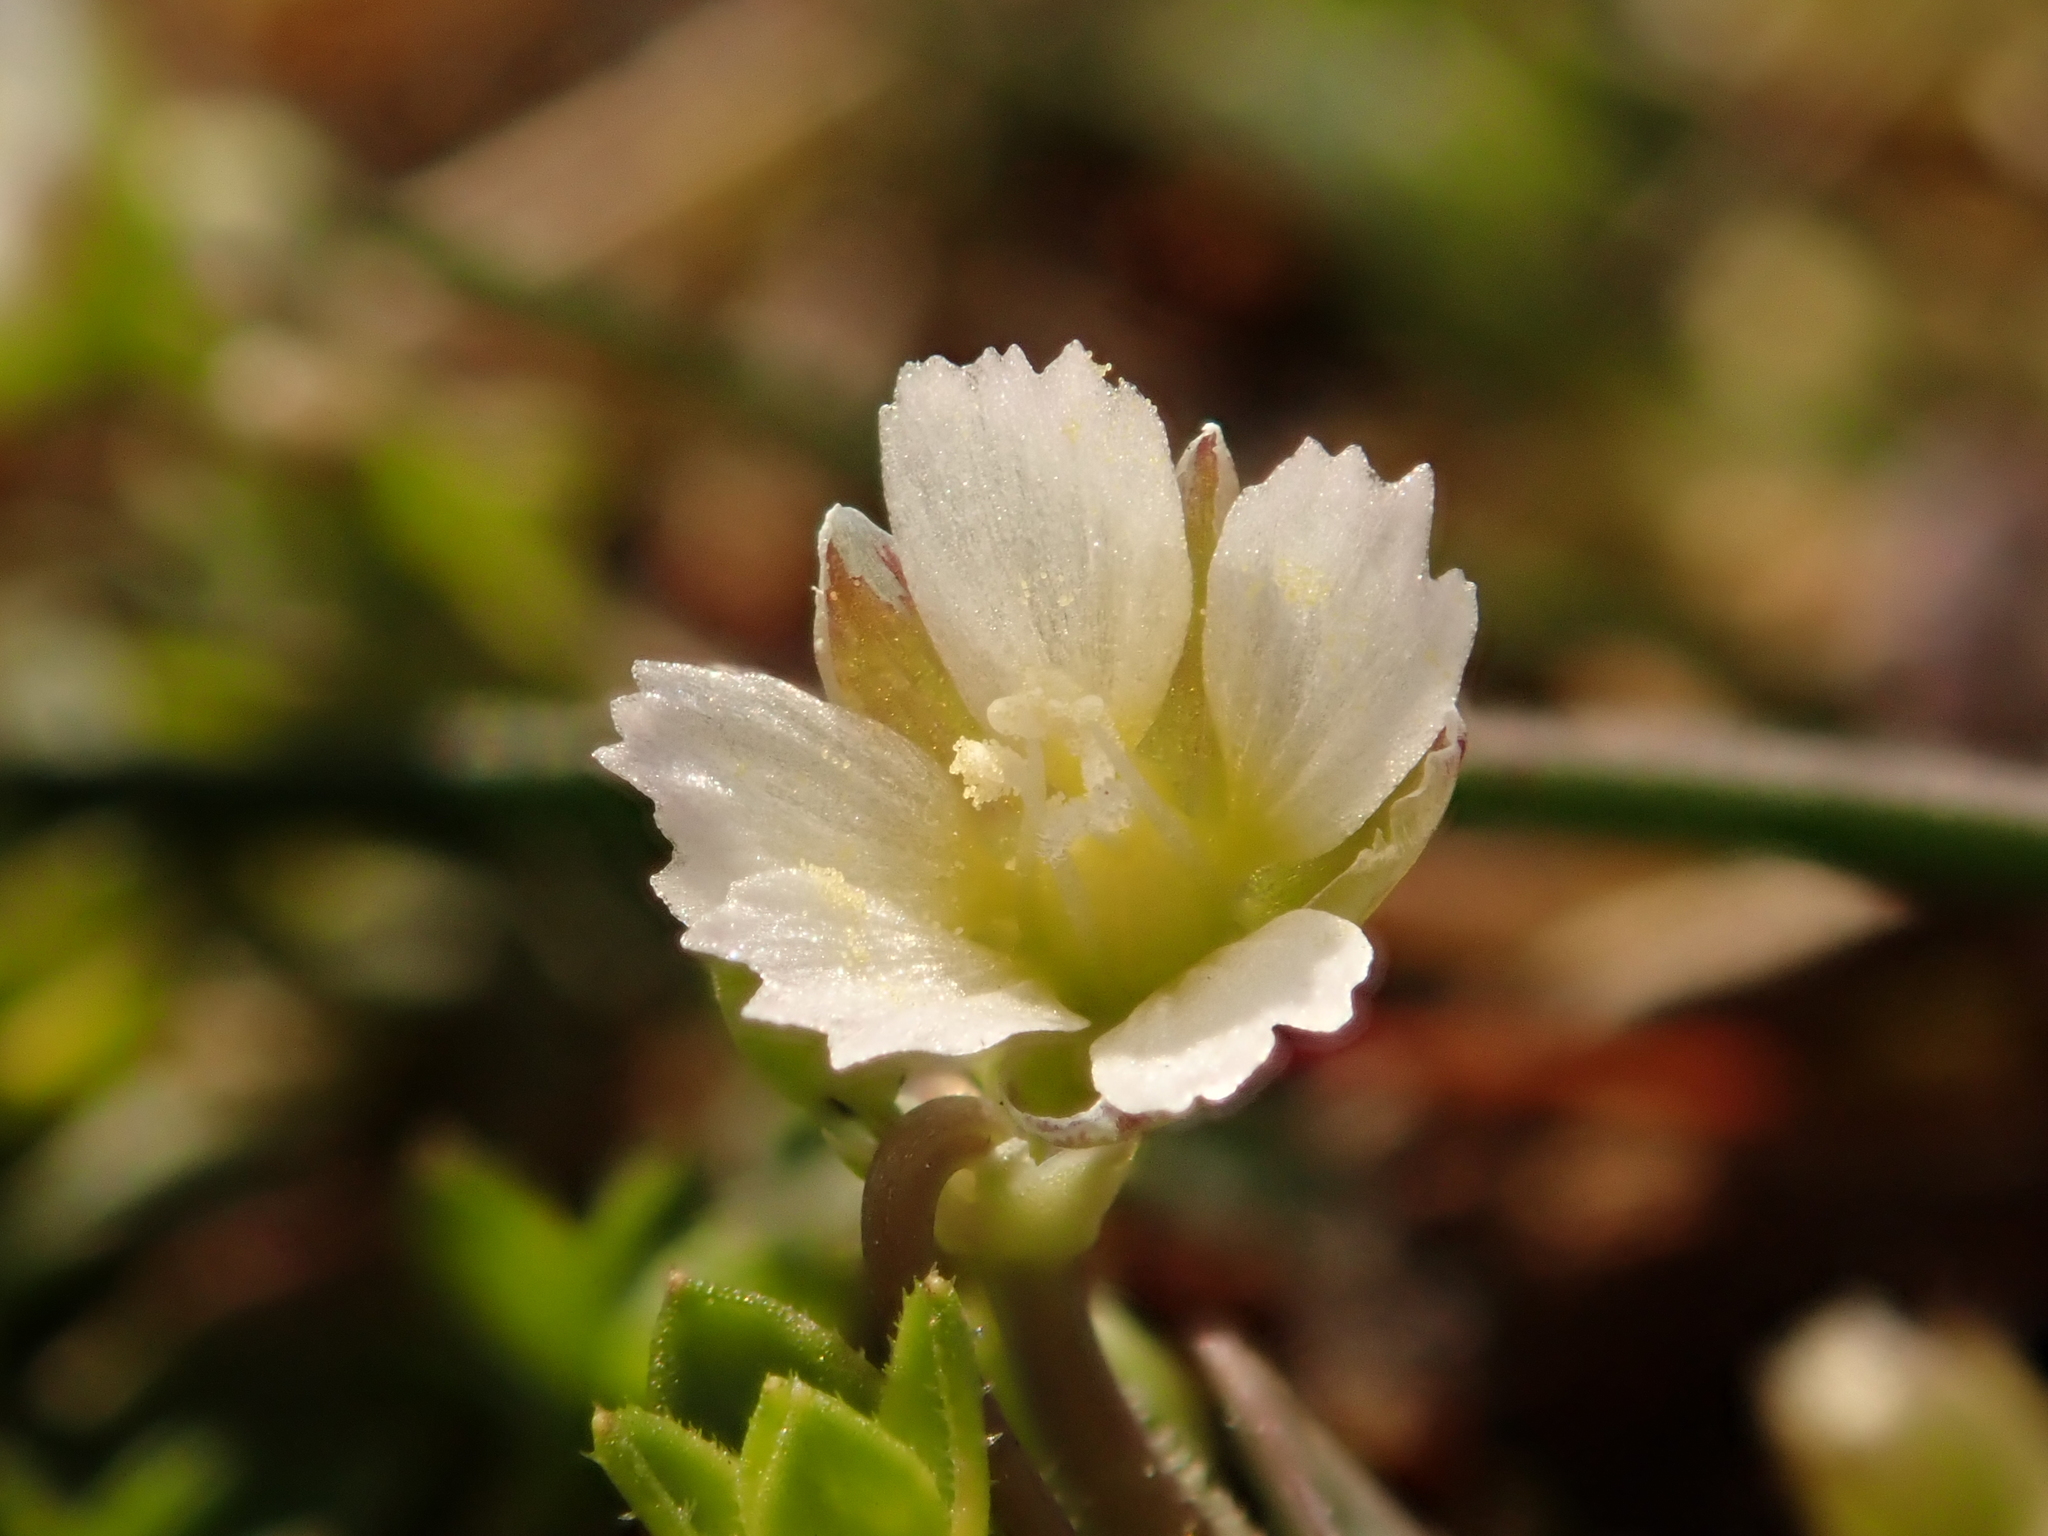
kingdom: Plantae
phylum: Tracheophyta
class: Magnoliopsida
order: Caryophyllales
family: Caryophyllaceae
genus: Holosteum
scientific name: Holosteum umbellatum
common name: Jagged chickweed
